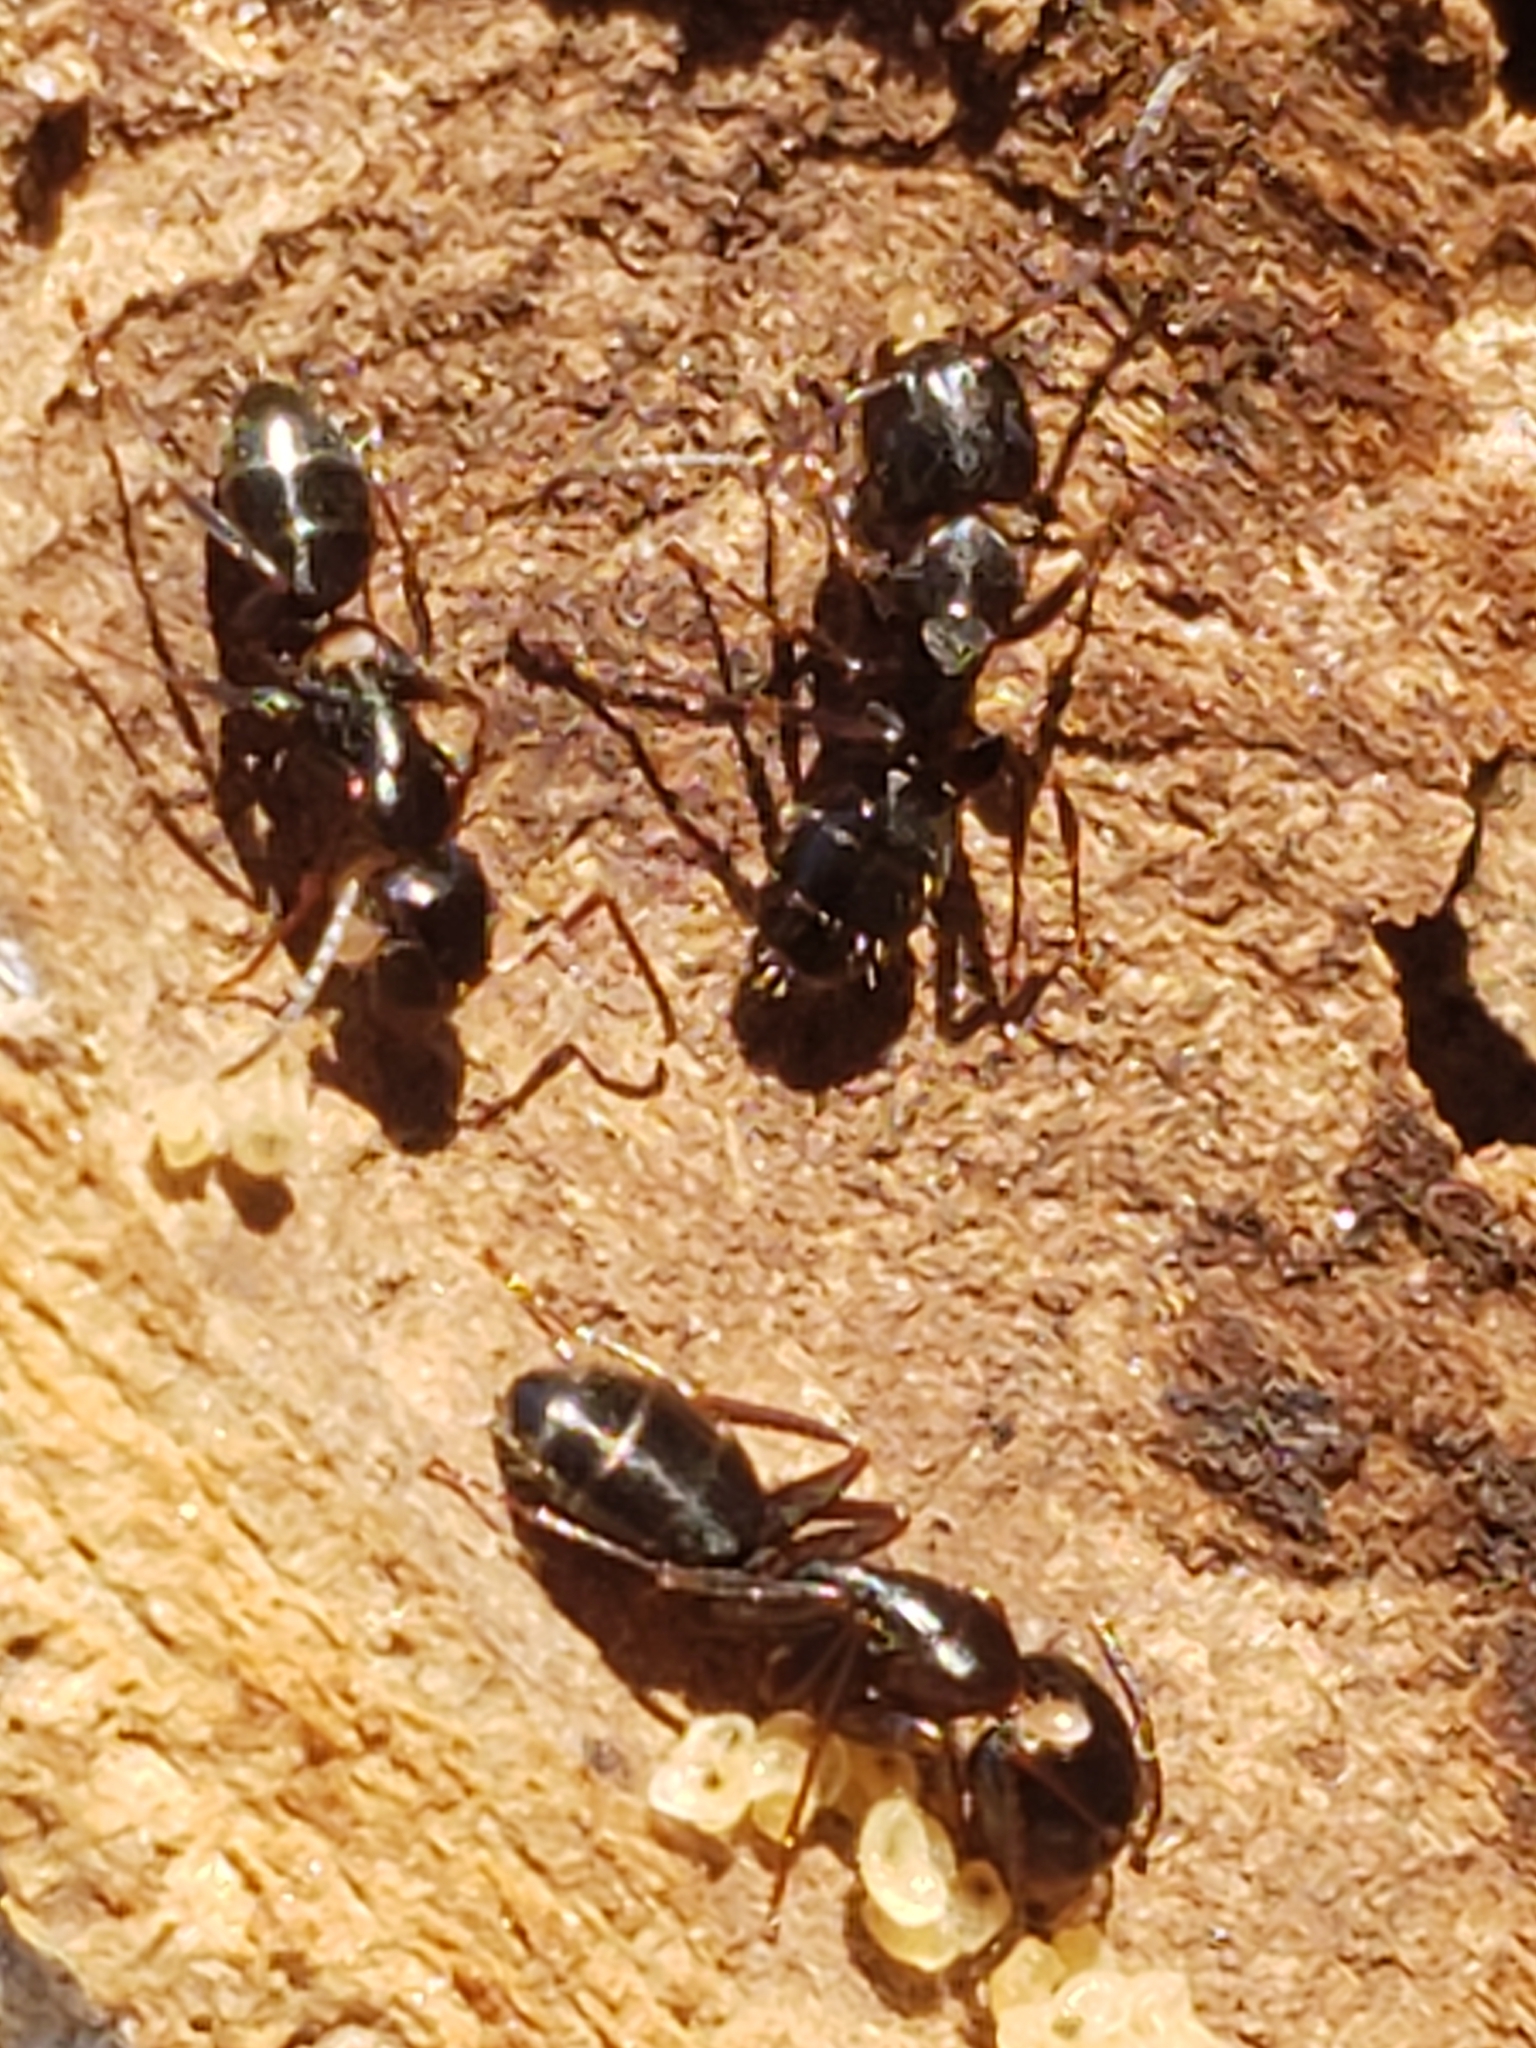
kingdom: Animalia
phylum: Arthropoda
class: Insecta
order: Hymenoptera
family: Formicidae
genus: Camponotus
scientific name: Camponotus nearcticus
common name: Smaller carpenter ant
